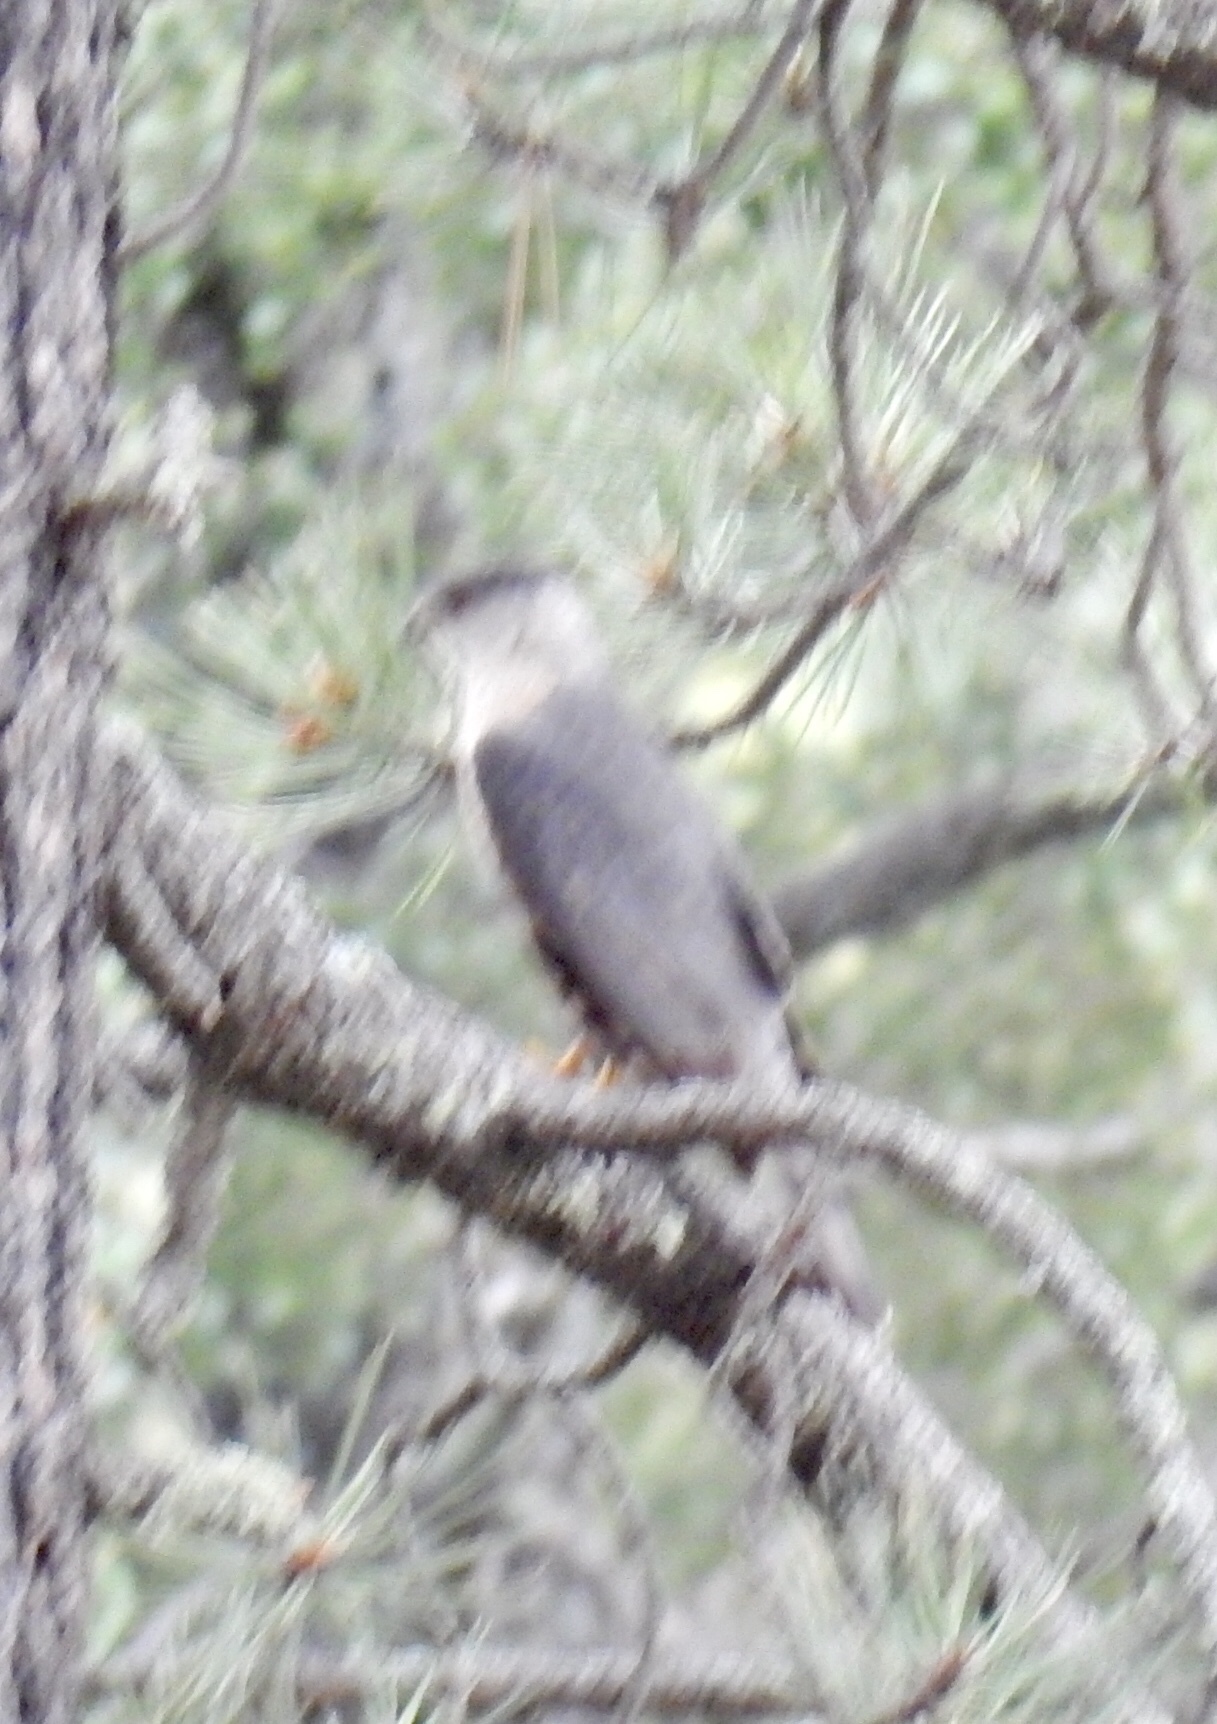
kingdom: Animalia
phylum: Chordata
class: Aves
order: Accipitriformes
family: Accipitridae
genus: Accipiter
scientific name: Accipiter cooperii
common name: Cooper's hawk
